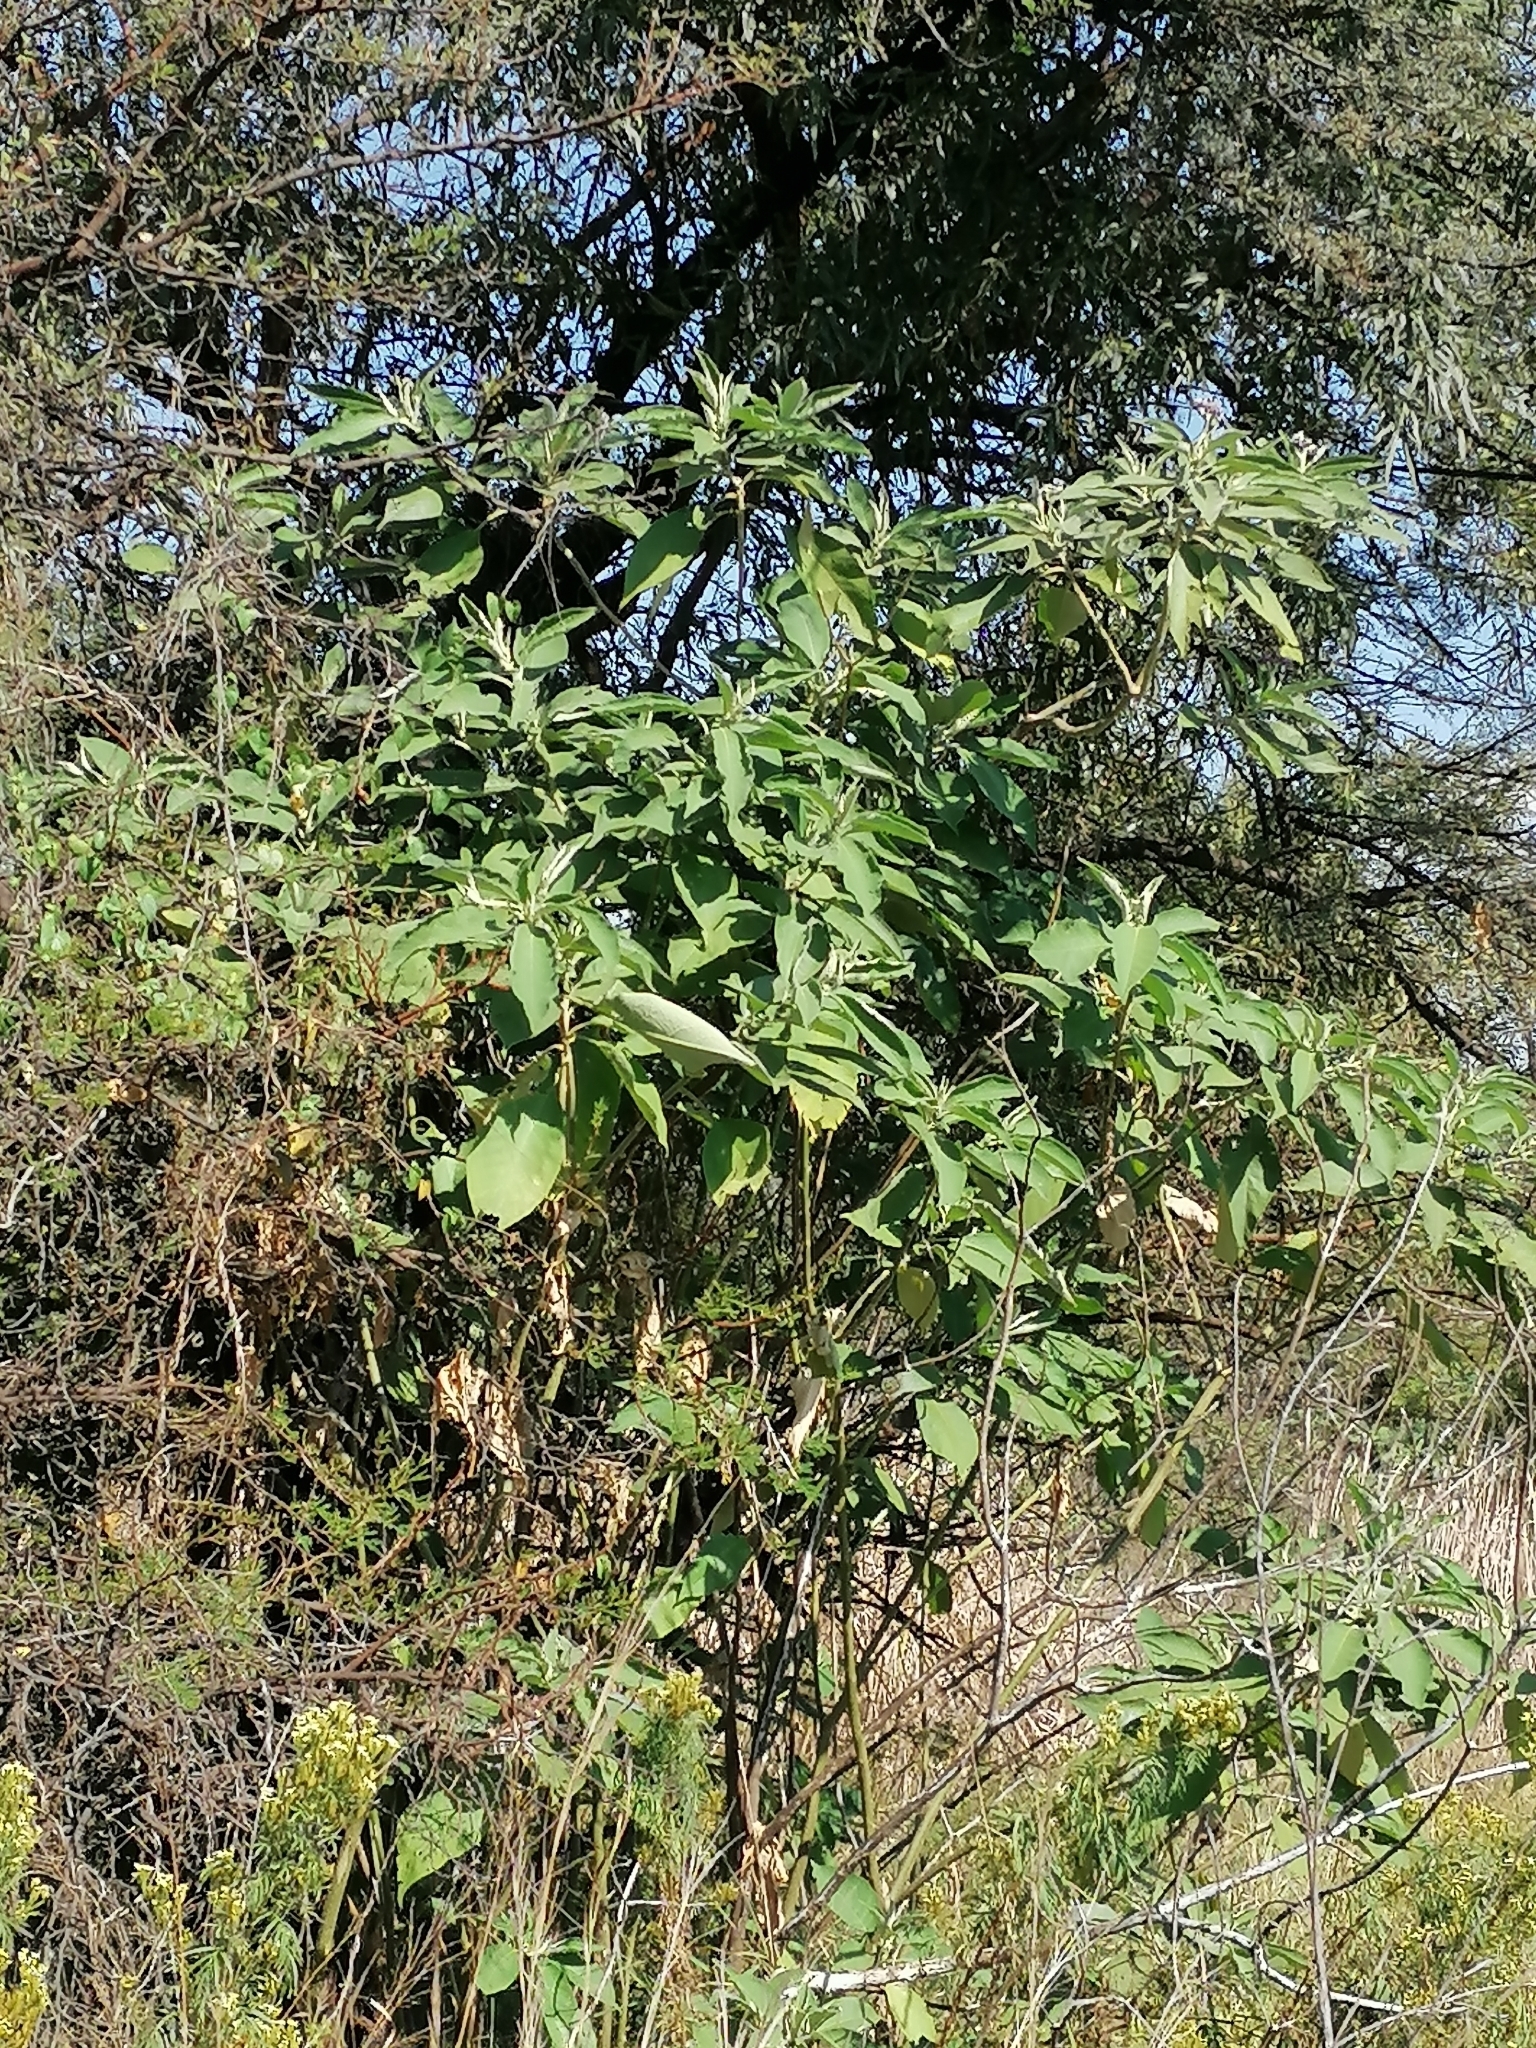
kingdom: Plantae
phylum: Tracheophyta
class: Magnoliopsida
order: Solanales
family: Solanaceae
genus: Solanum
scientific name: Solanum mauritianum
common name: Earleaf nightshade
